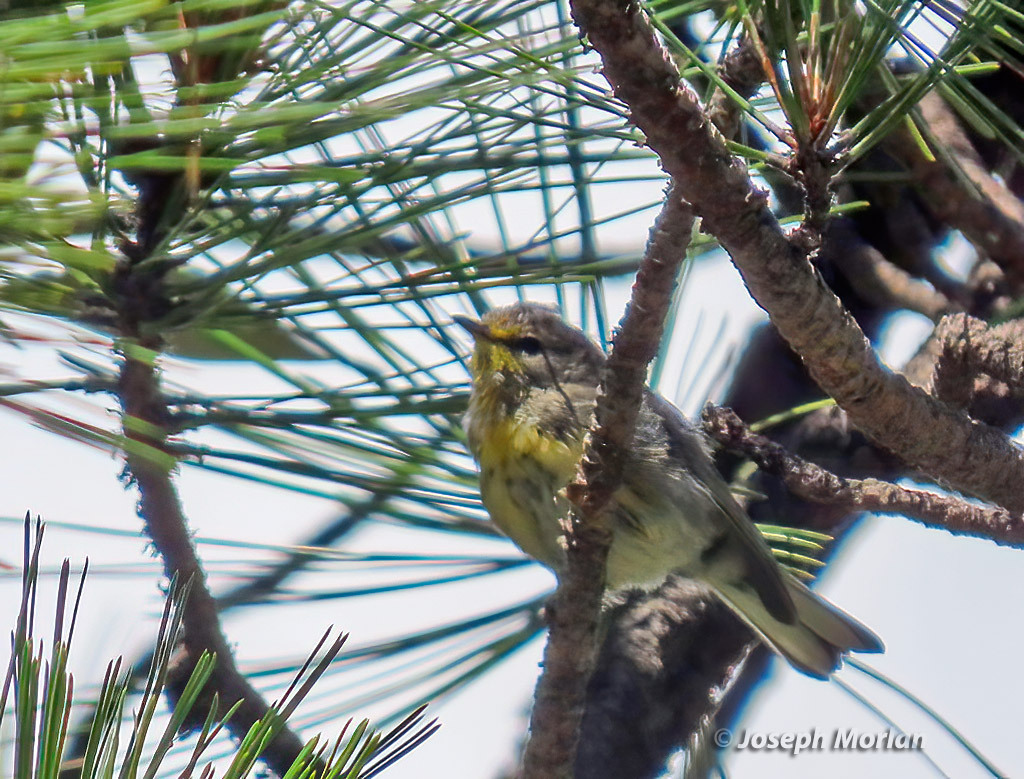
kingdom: Animalia
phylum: Chordata
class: Aves
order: Passeriformes
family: Parulidae
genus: Setophaga
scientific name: Setophaga graciae
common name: Grace's warbler
